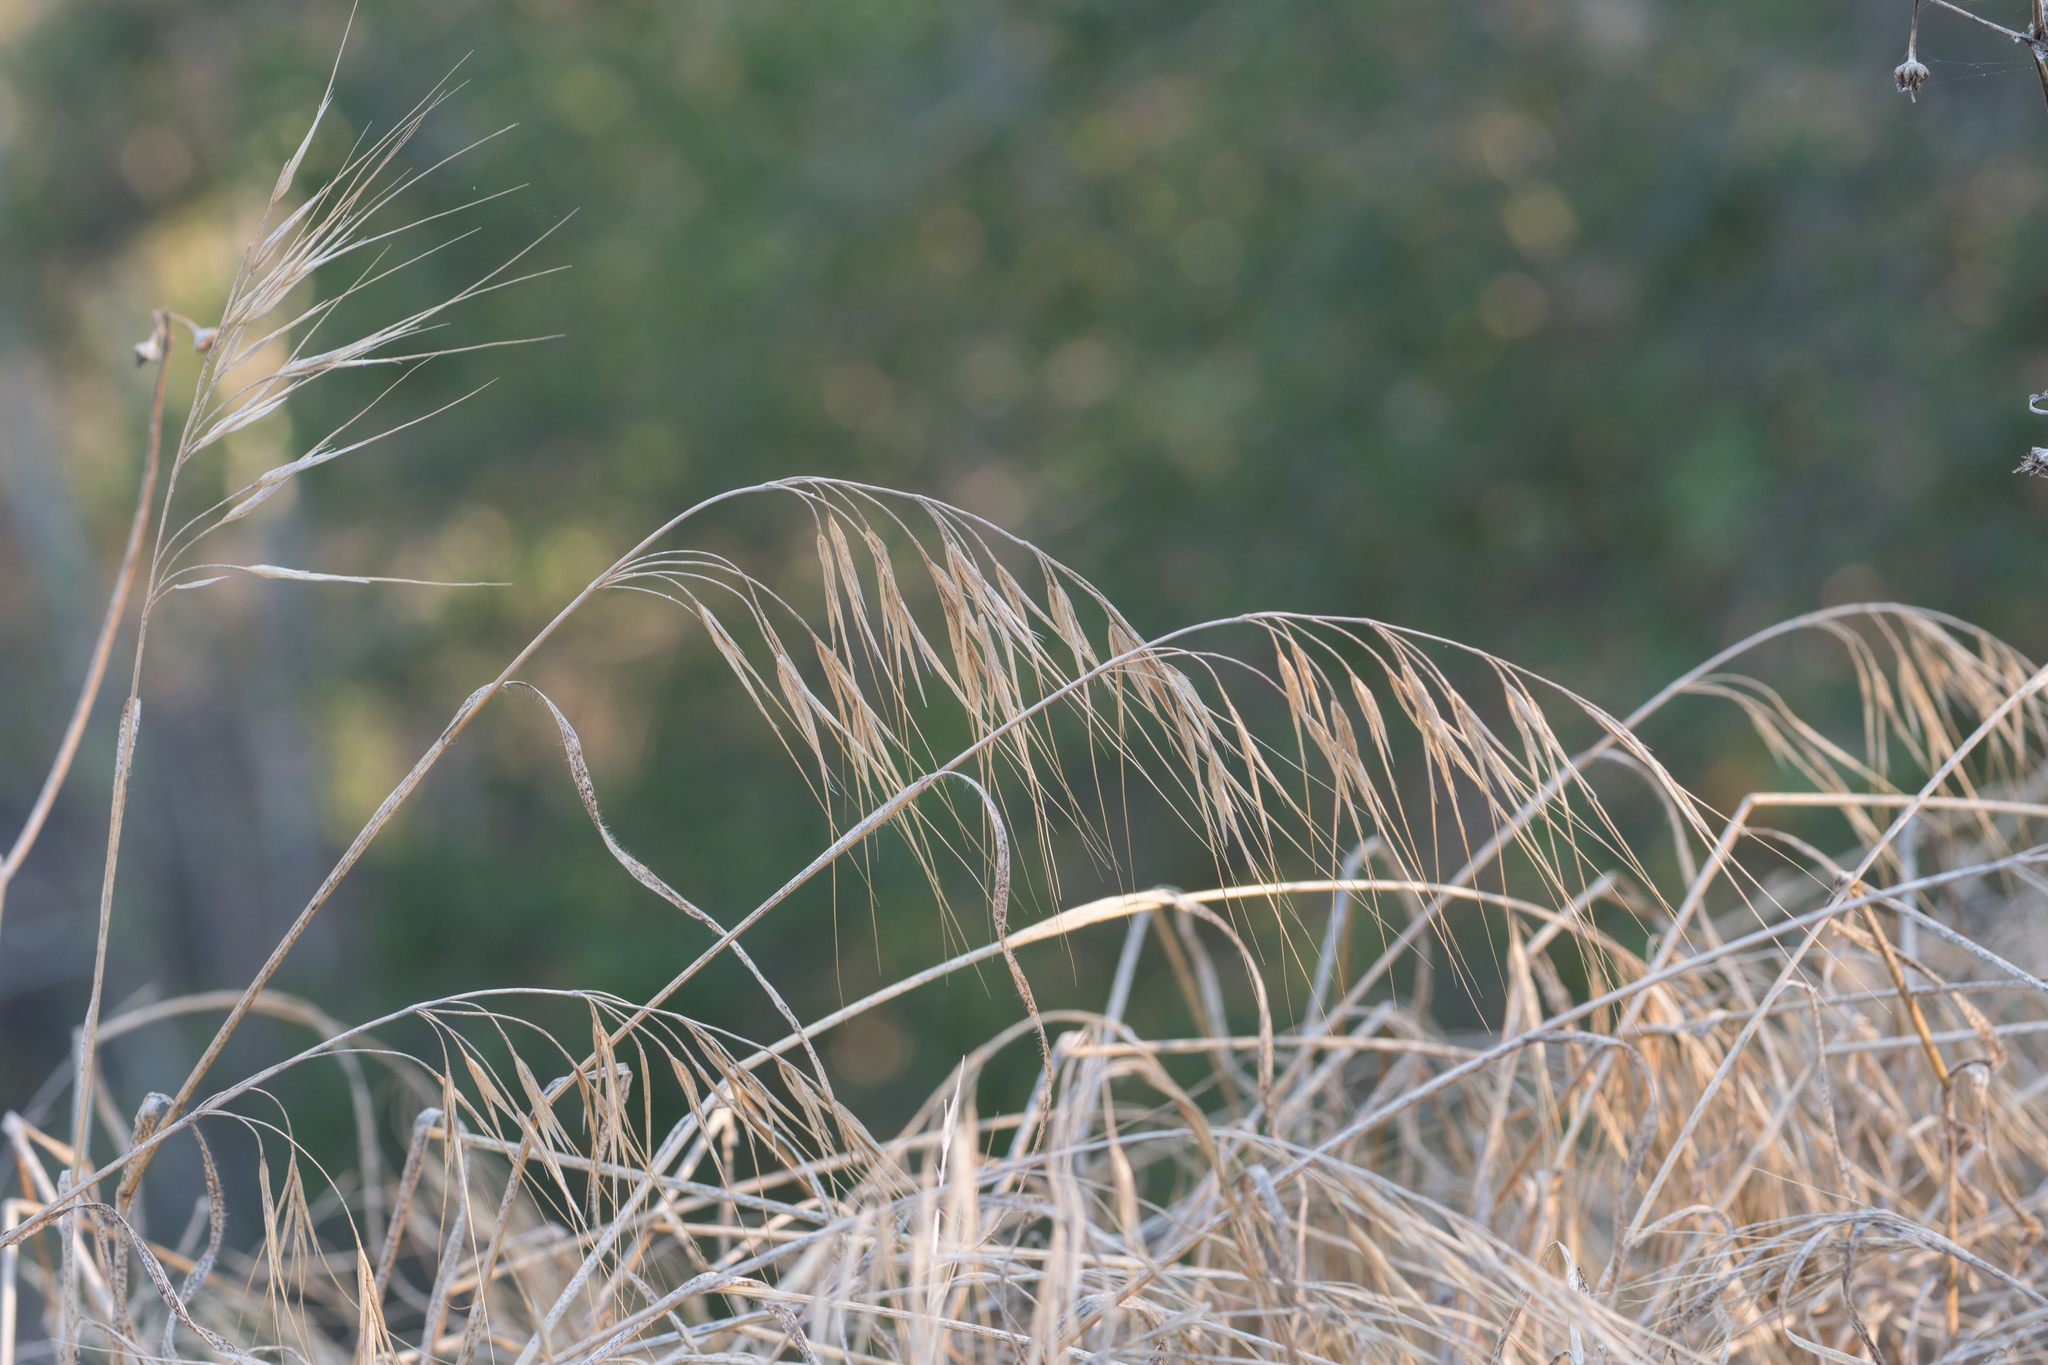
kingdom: Plantae
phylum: Tracheophyta
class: Liliopsida
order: Poales
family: Poaceae
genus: Bromus
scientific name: Bromus diandrus
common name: Ripgut brome
